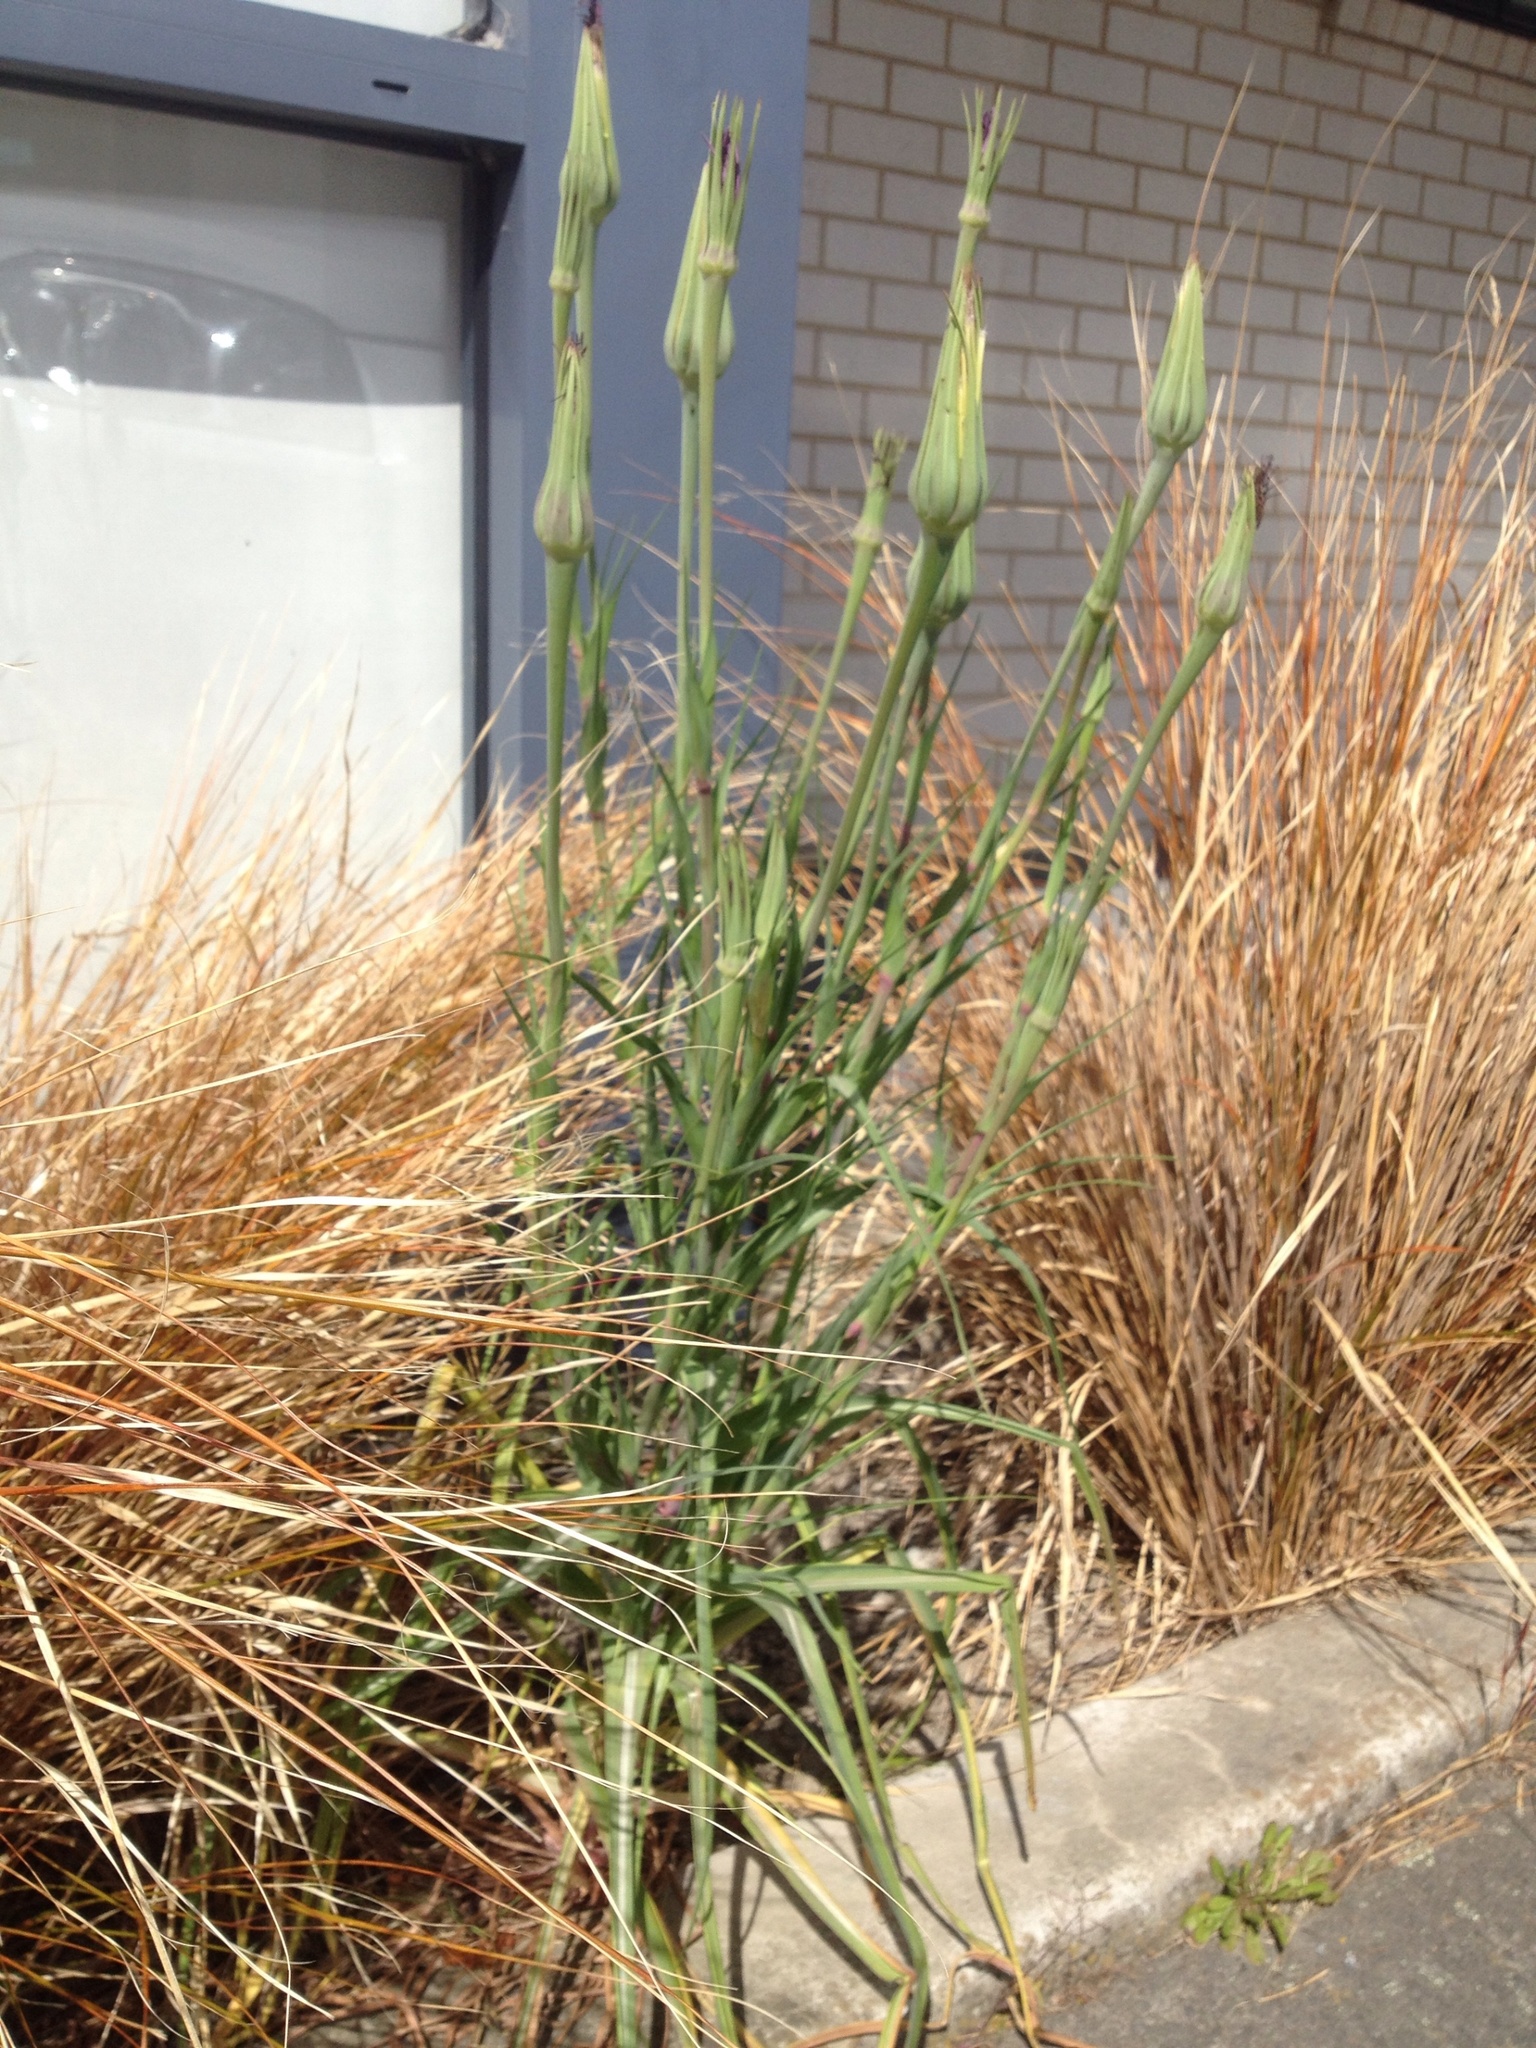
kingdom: Plantae
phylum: Tracheophyta
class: Magnoliopsida
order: Asterales
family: Asteraceae
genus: Tragopogon
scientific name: Tragopogon porrifolius
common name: Salsify
